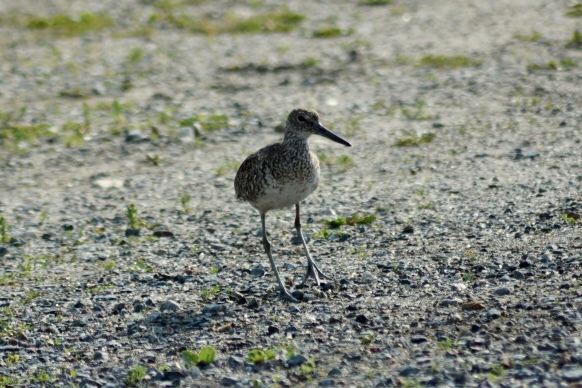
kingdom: Animalia
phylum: Chordata
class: Aves
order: Charadriiformes
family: Scolopacidae
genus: Tringa
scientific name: Tringa semipalmata
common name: Willet
